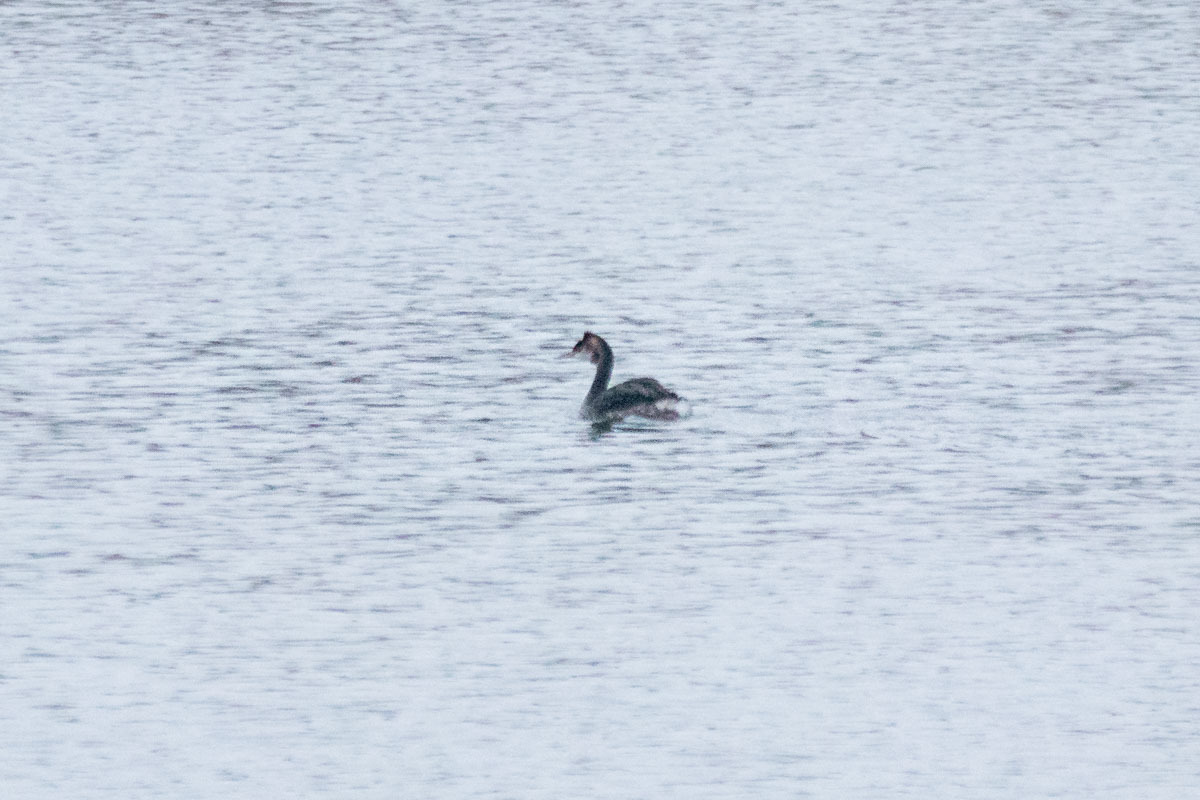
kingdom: Animalia
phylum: Chordata
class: Aves
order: Podicipediformes
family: Podicipedidae
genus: Podiceps
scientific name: Podiceps cristatus
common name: Great crested grebe
